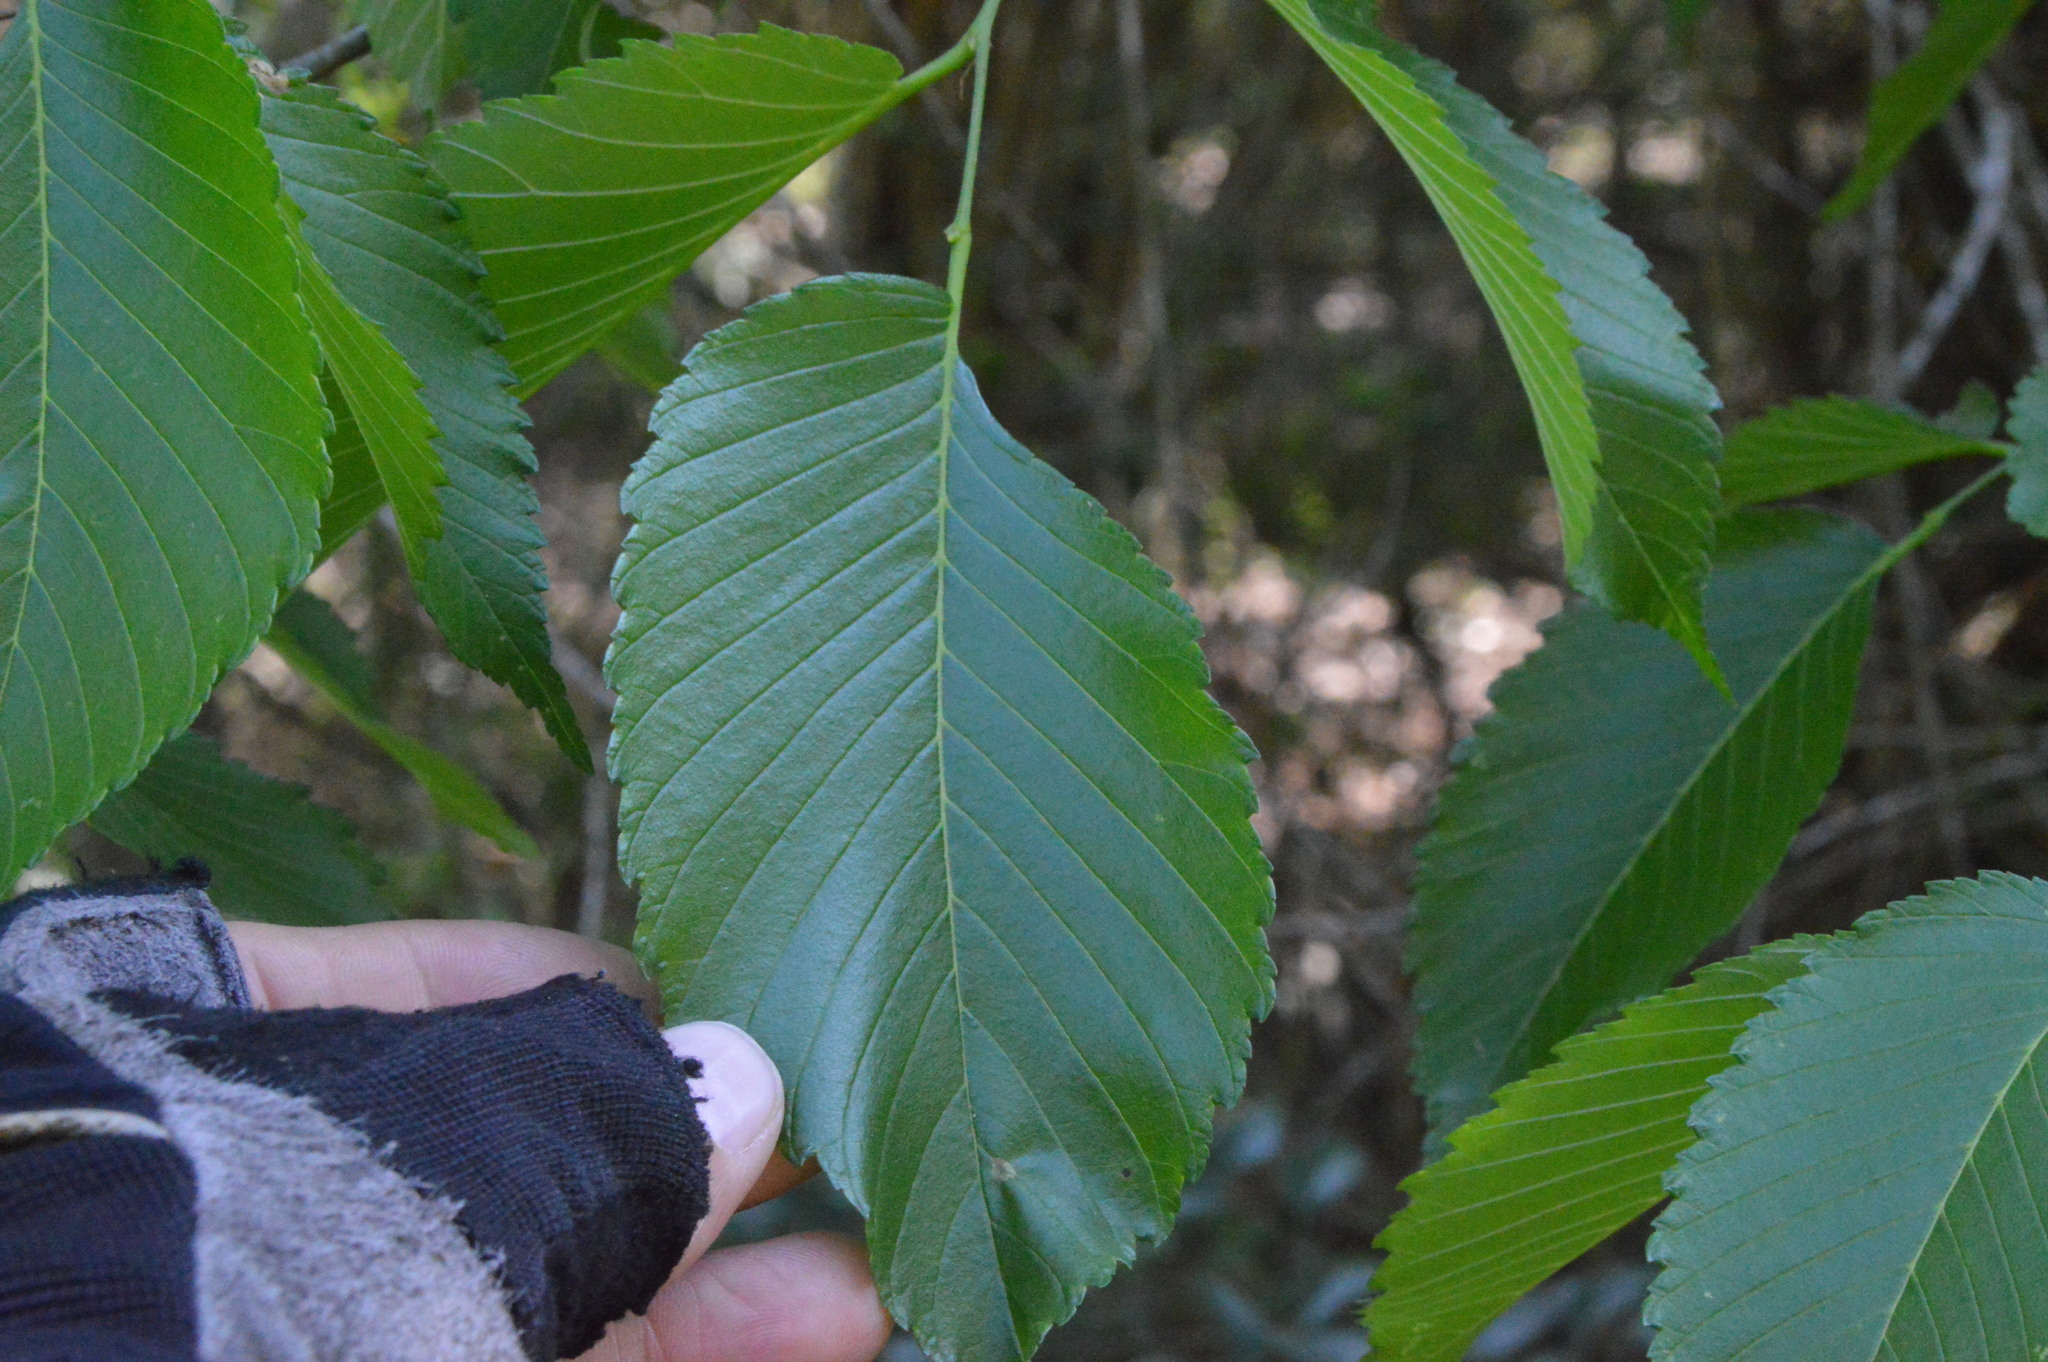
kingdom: Plantae
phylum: Tracheophyta
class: Magnoliopsida
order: Rosales
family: Ulmaceae
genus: Ulmus
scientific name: Ulmus americana
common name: American elm
